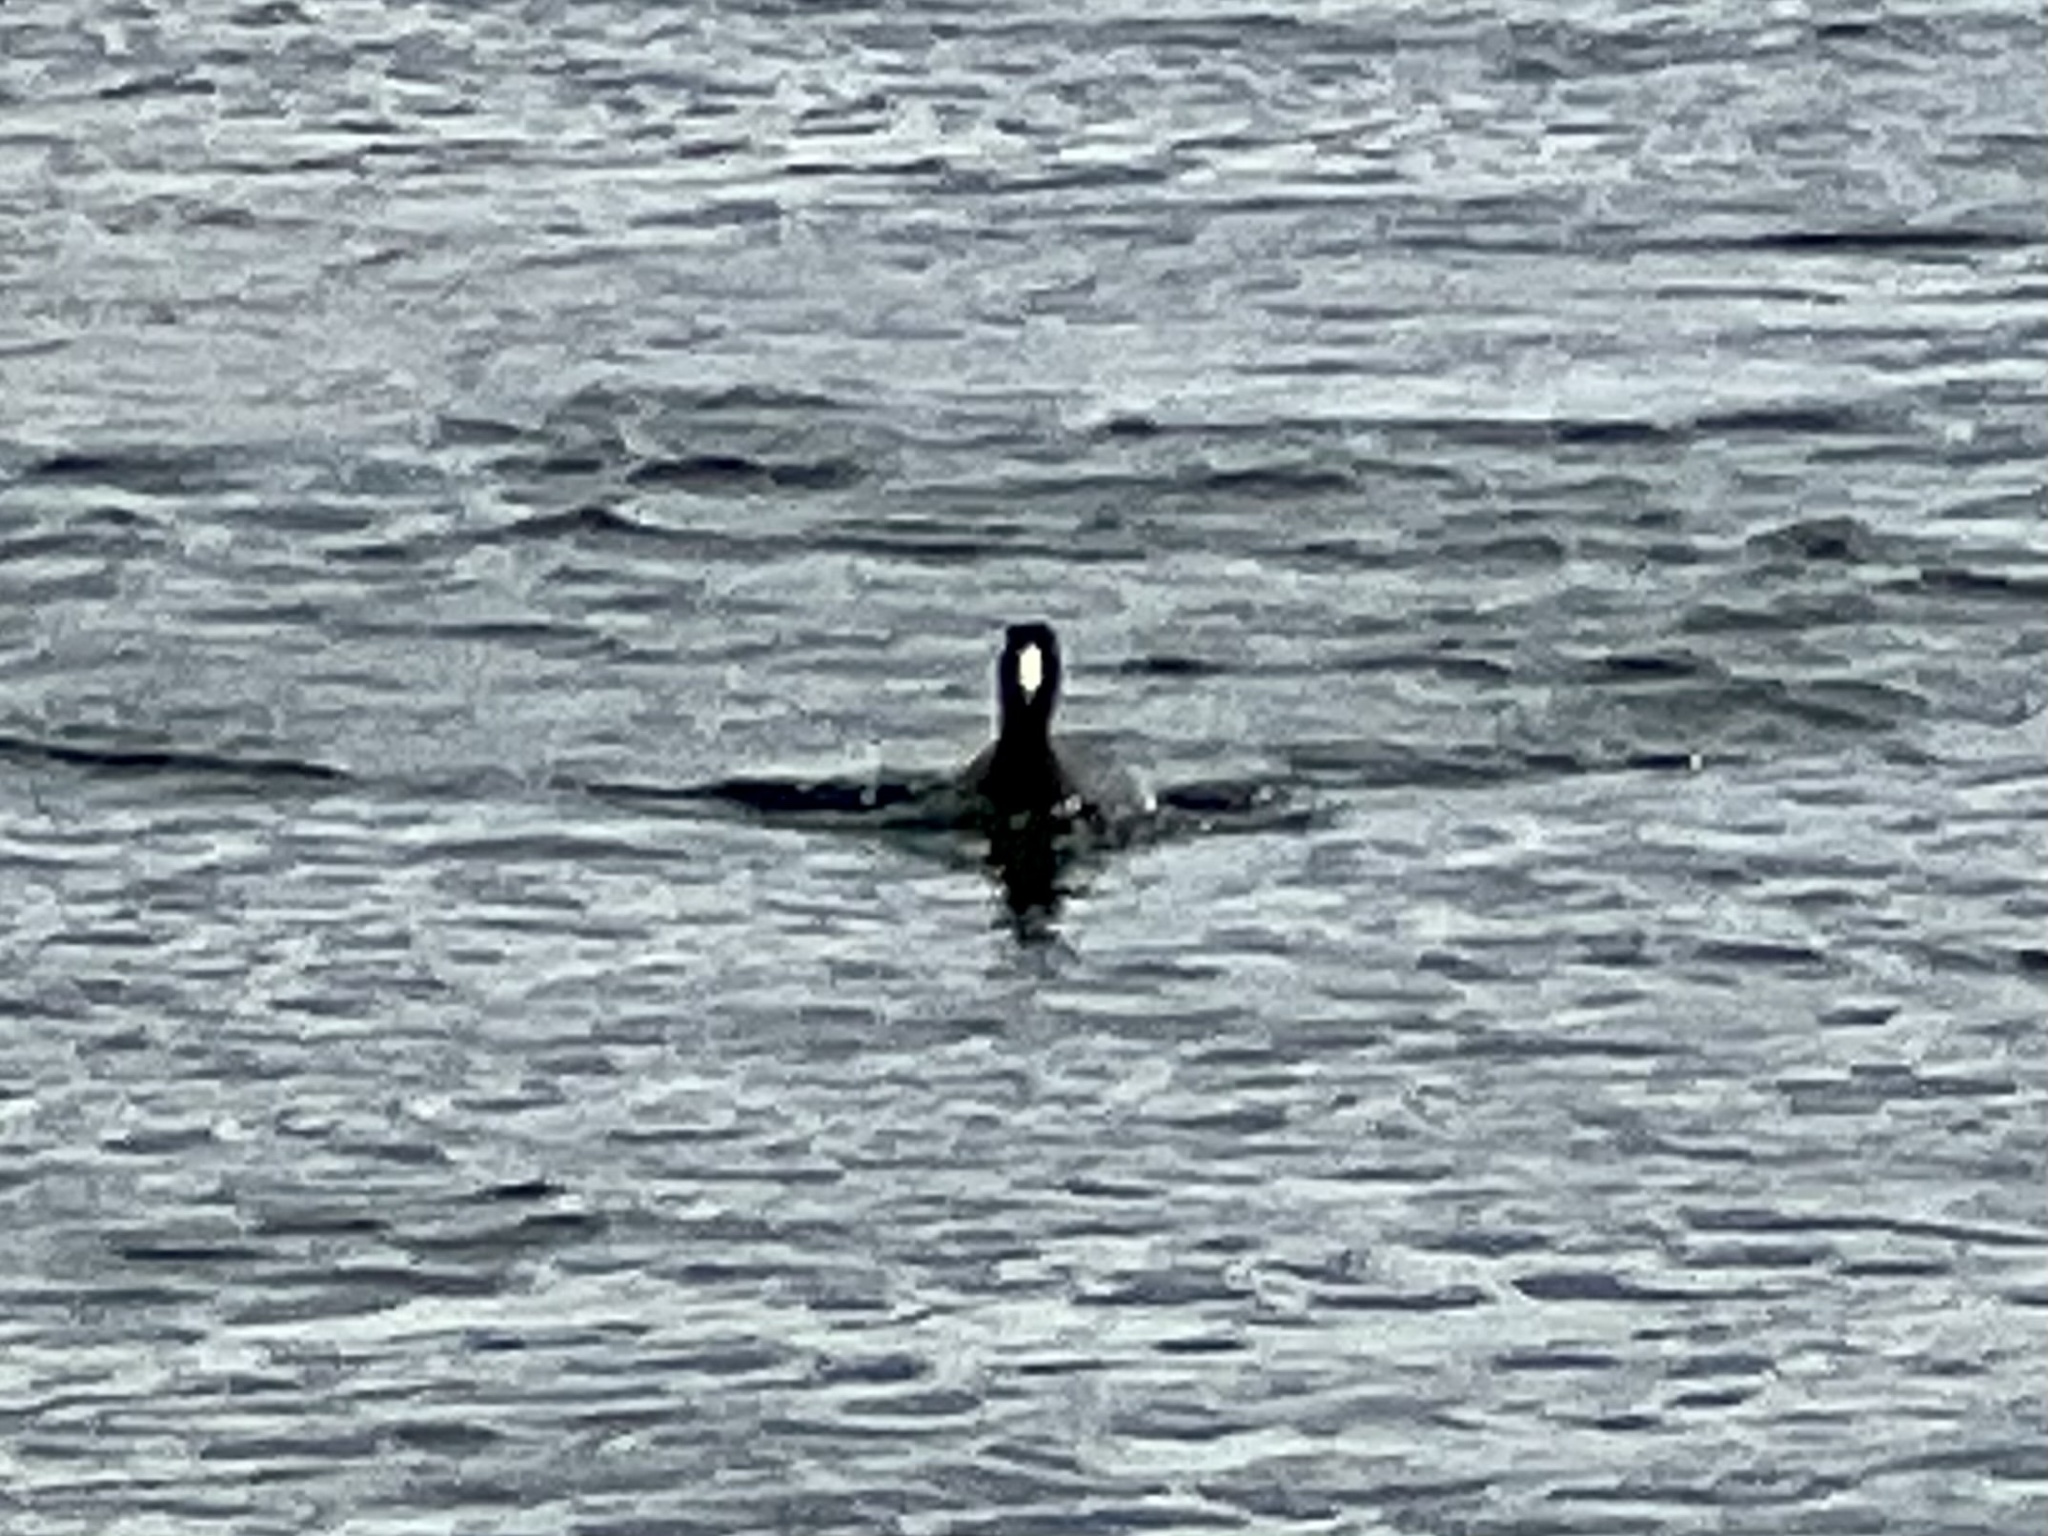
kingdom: Animalia
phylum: Chordata
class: Aves
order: Gruiformes
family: Rallidae
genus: Fulica
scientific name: Fulica americana
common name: American coot
